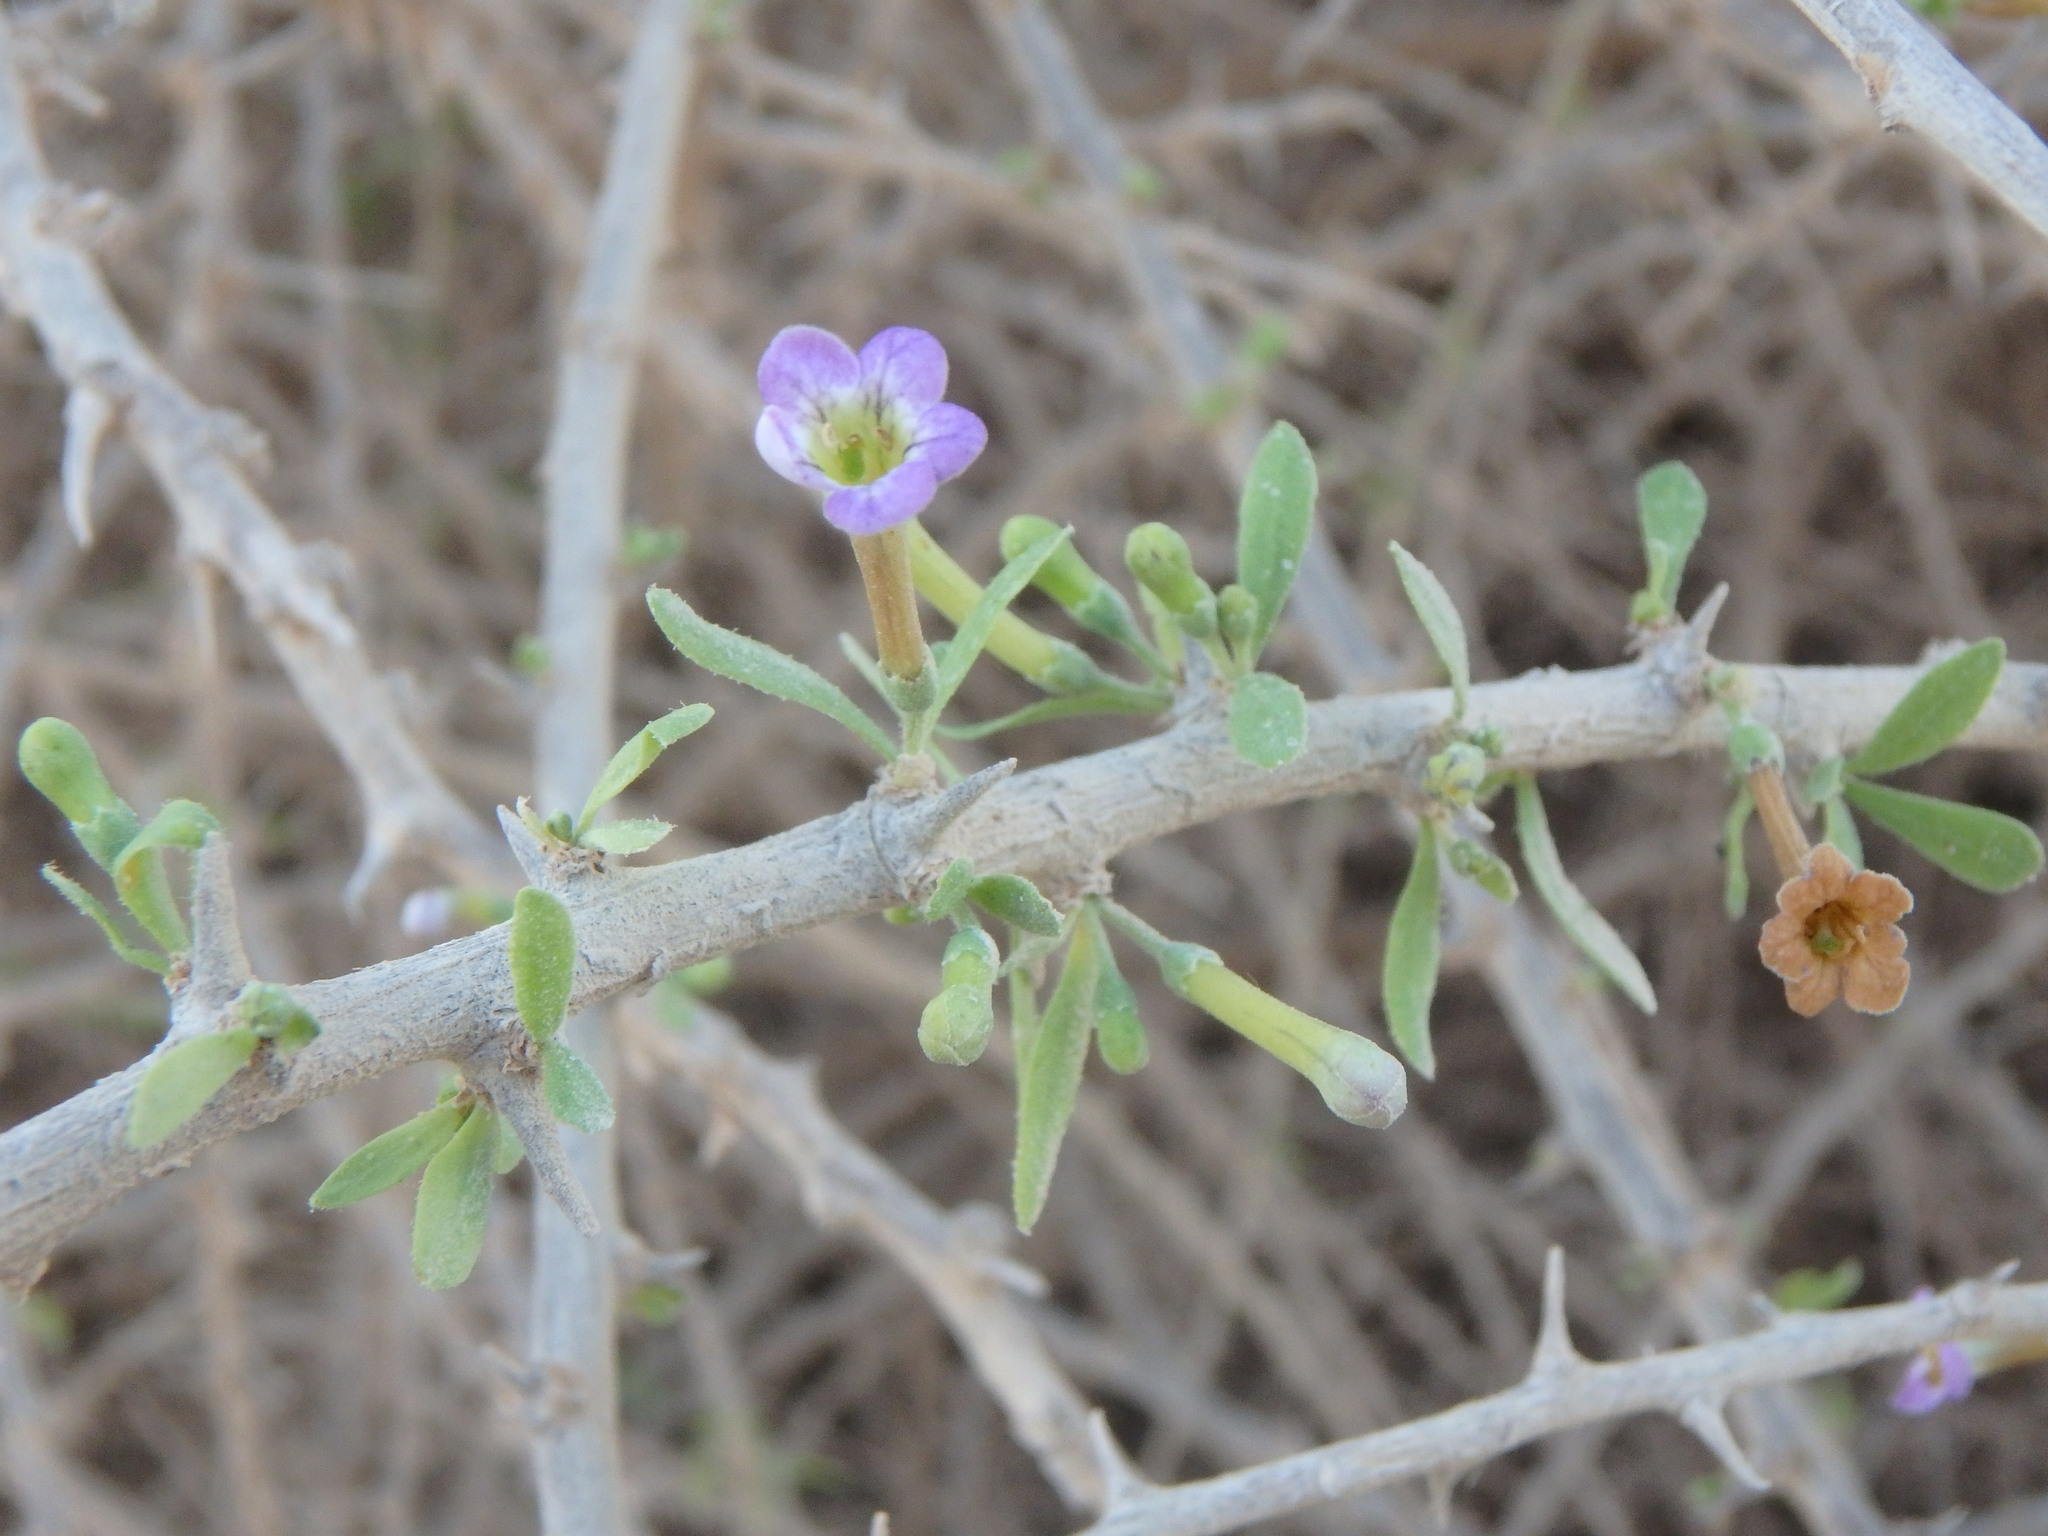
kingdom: Plantae
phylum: Tracheophyta
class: Magnoliopsida
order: Solanales
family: Solanaceae
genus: Lycium
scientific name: Lycium schweinfurthii
